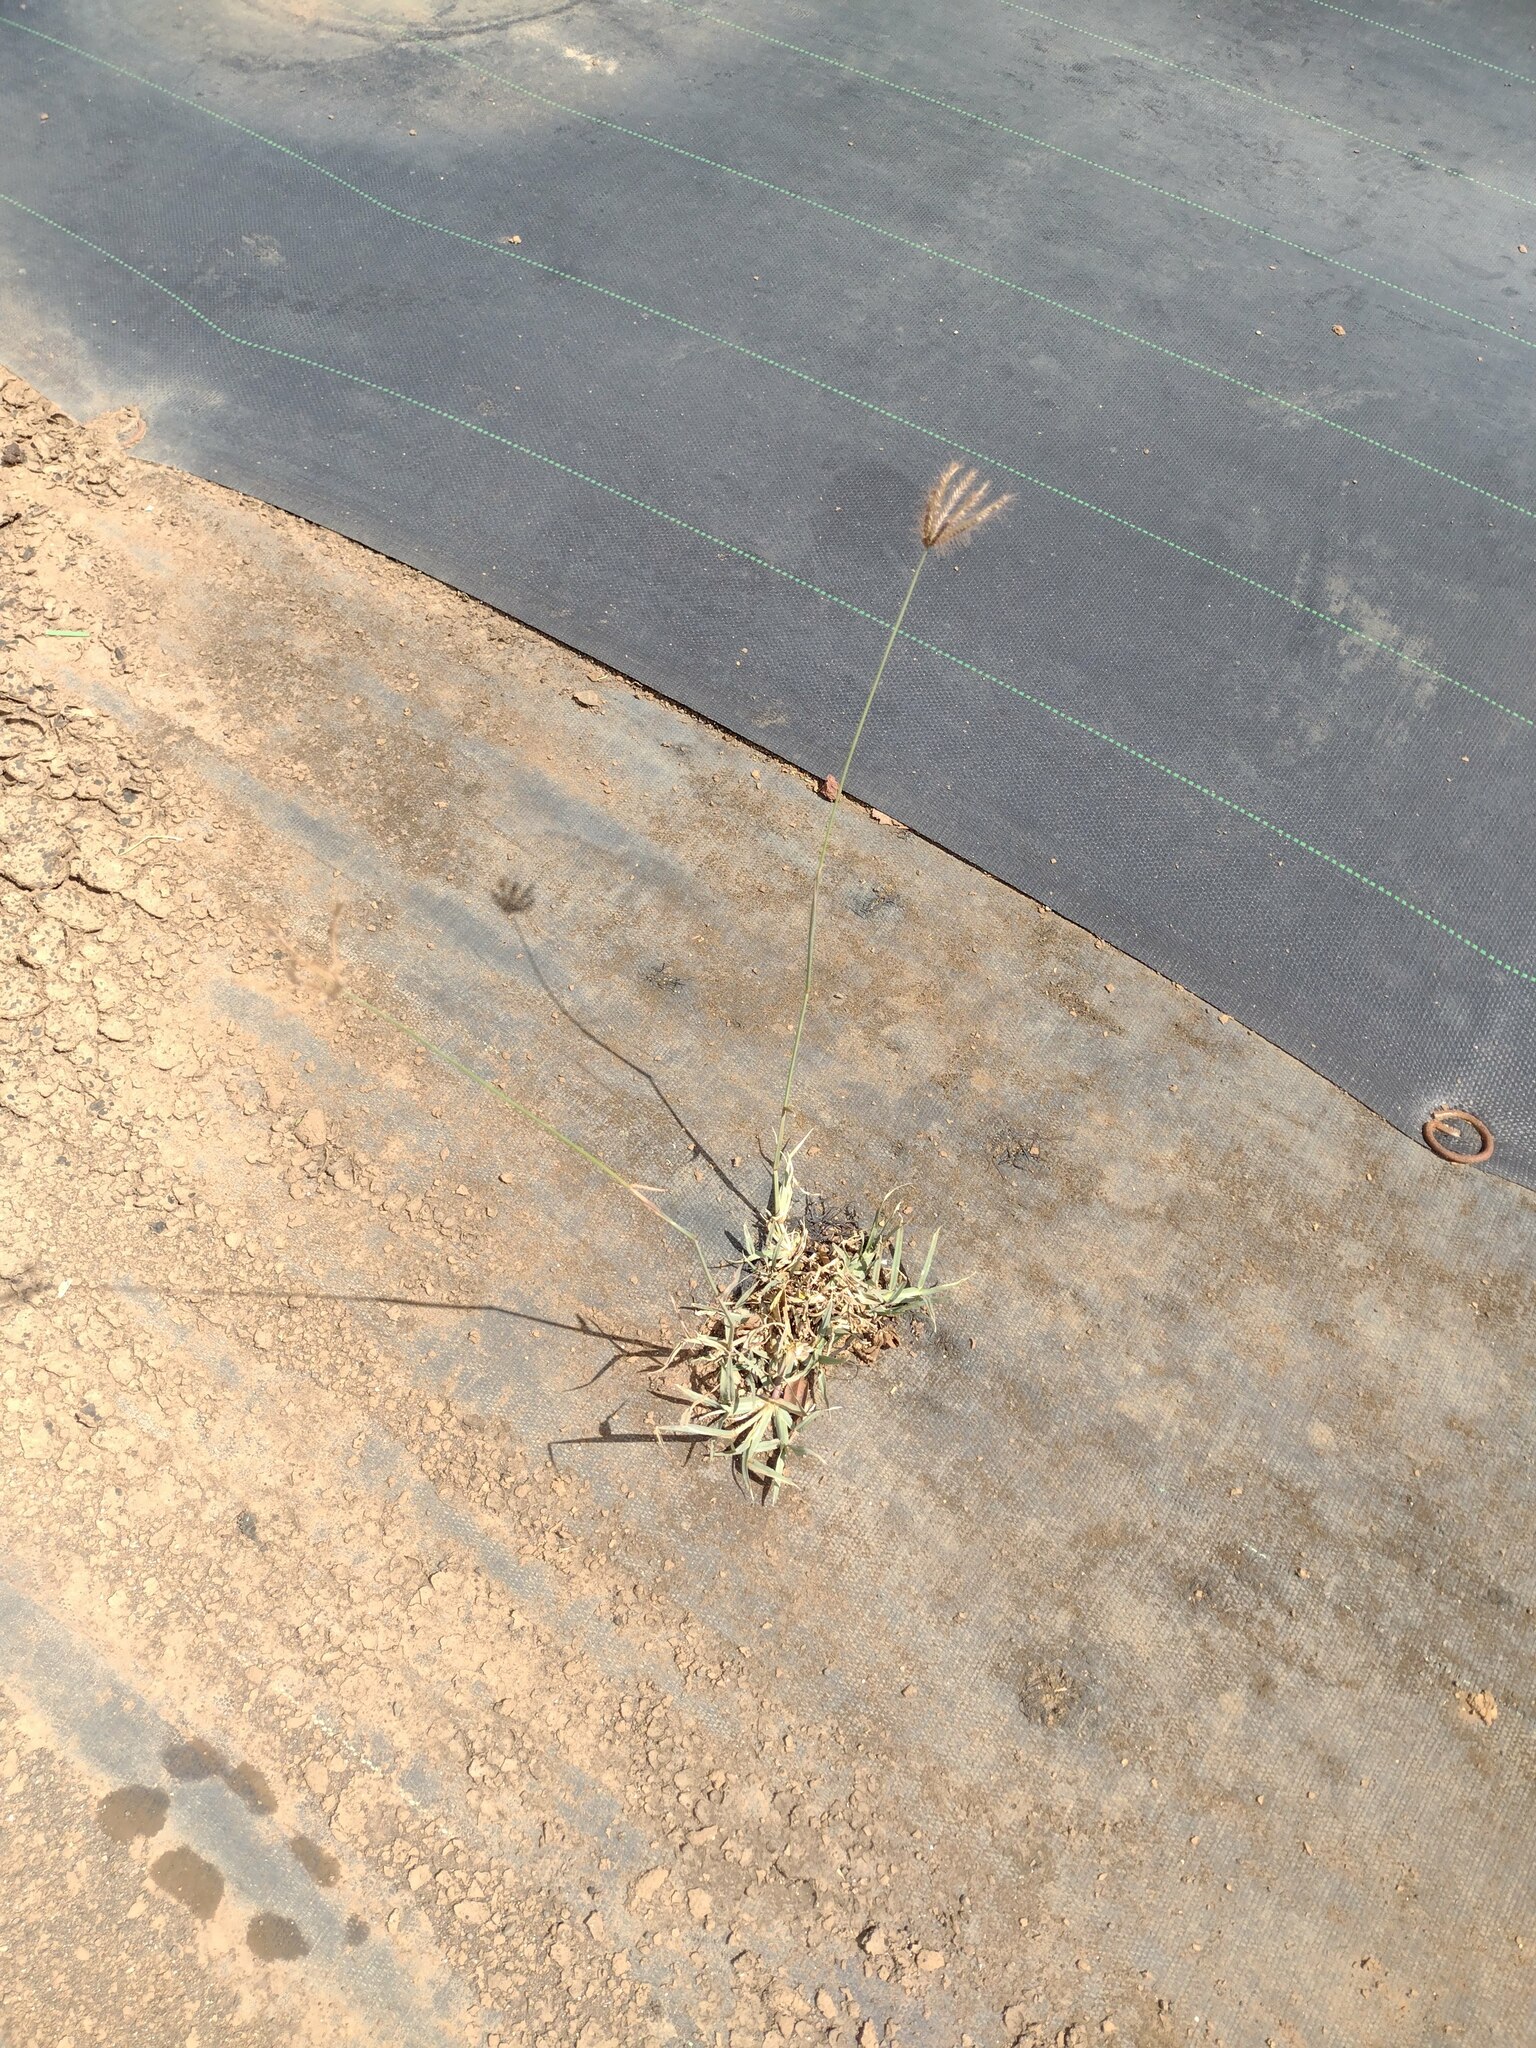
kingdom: Plantae
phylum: Tracheophyta
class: Liliopsida
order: Poales
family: Poaceae
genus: Chloris
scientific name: Chloris barbata
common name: Swollen fingergrass
